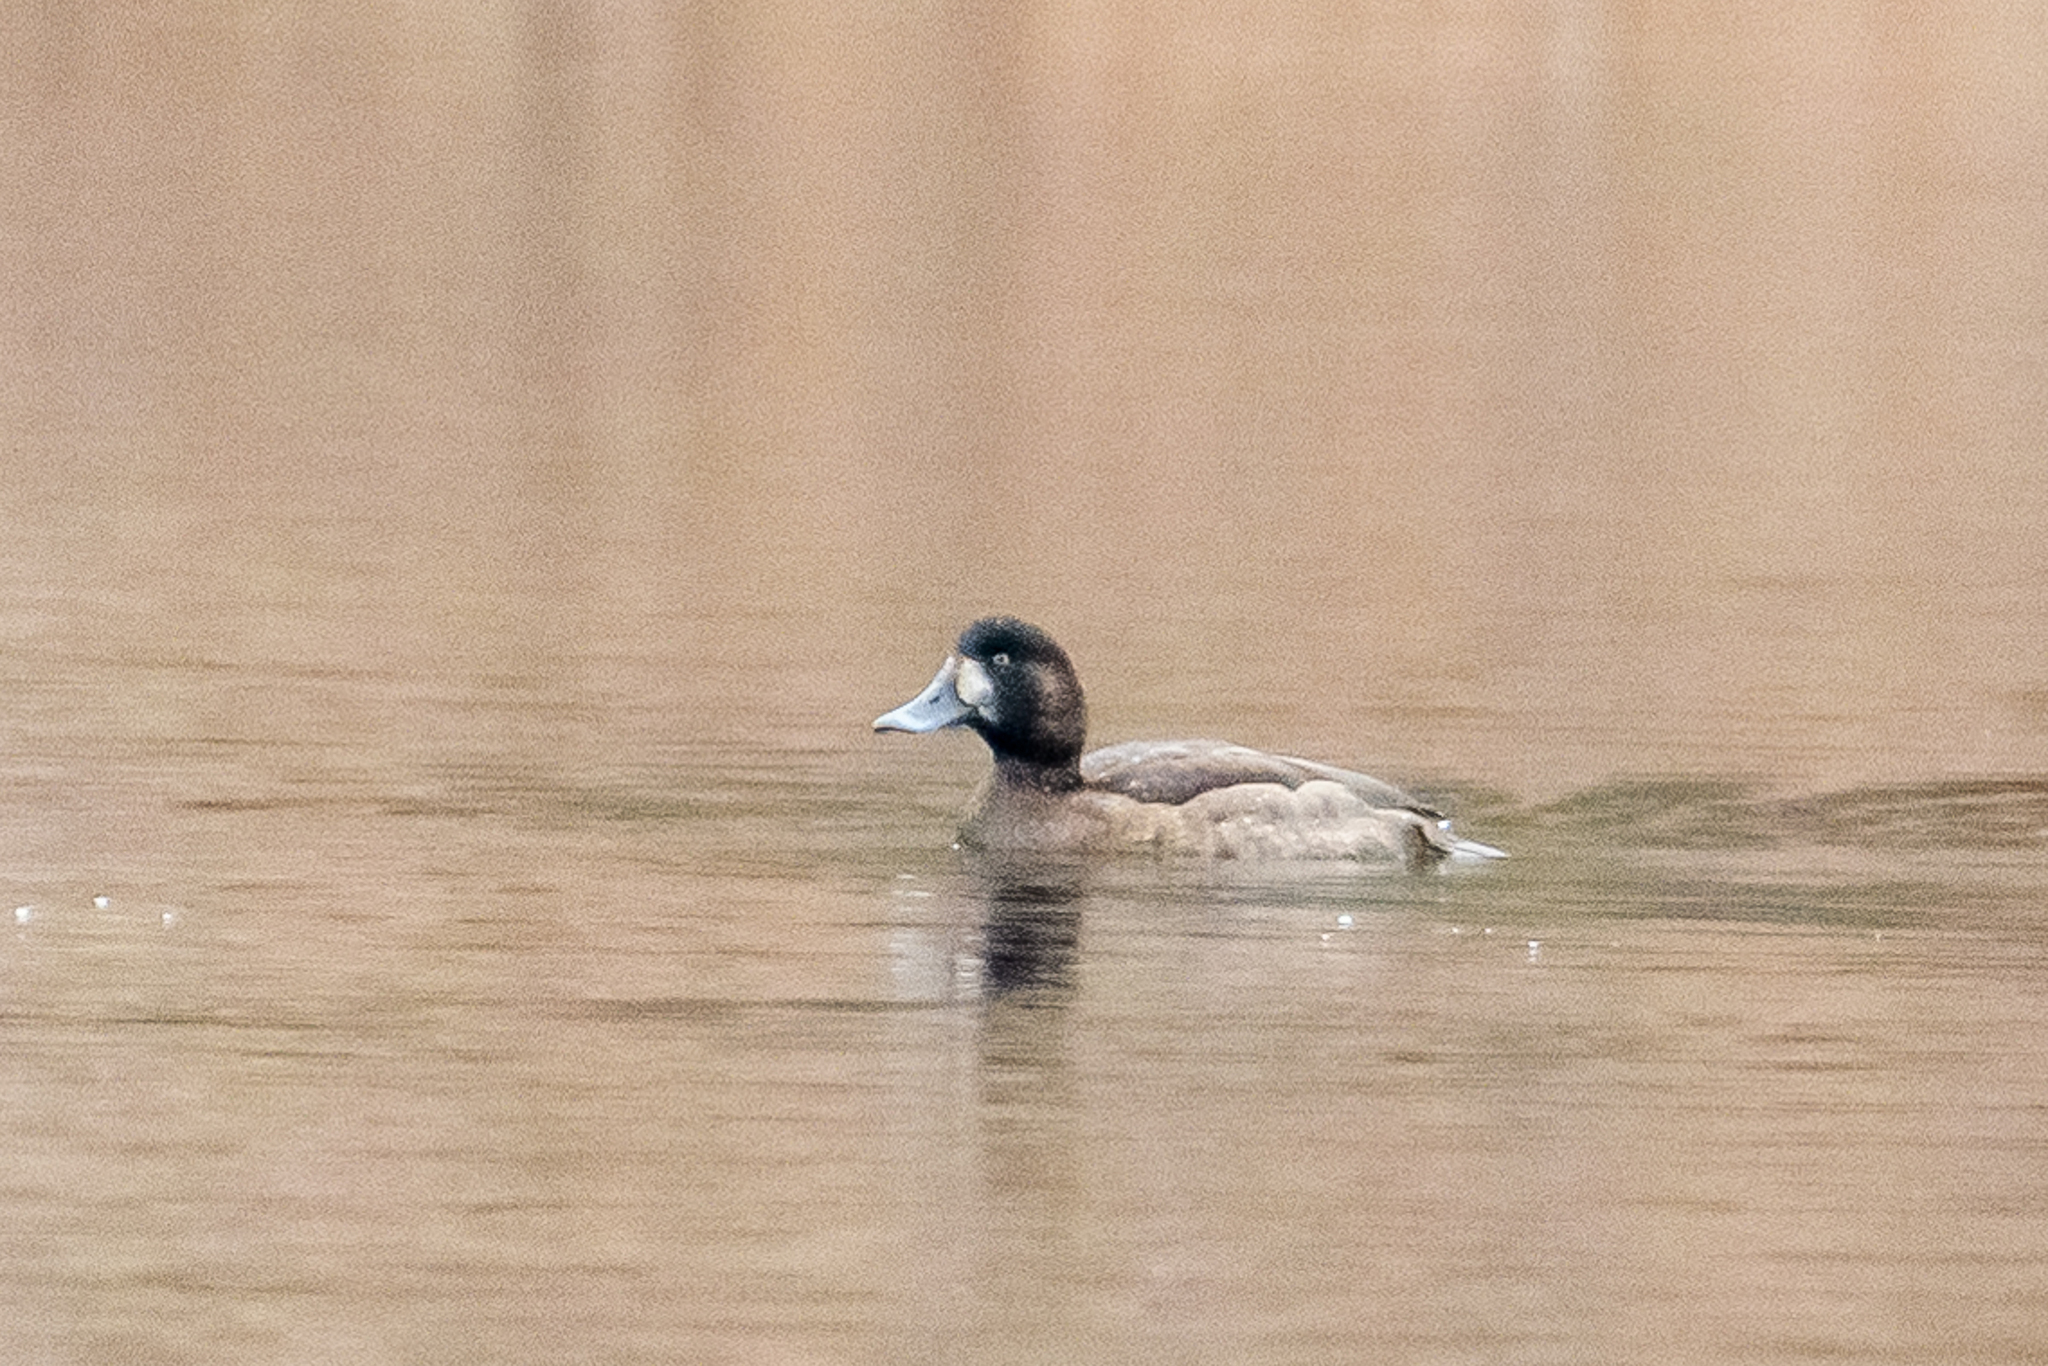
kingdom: Animalia
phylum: Chordata
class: Aves
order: Anseriformes
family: Anatidae
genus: Aythya
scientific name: Aythya marila
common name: Greater scaup
